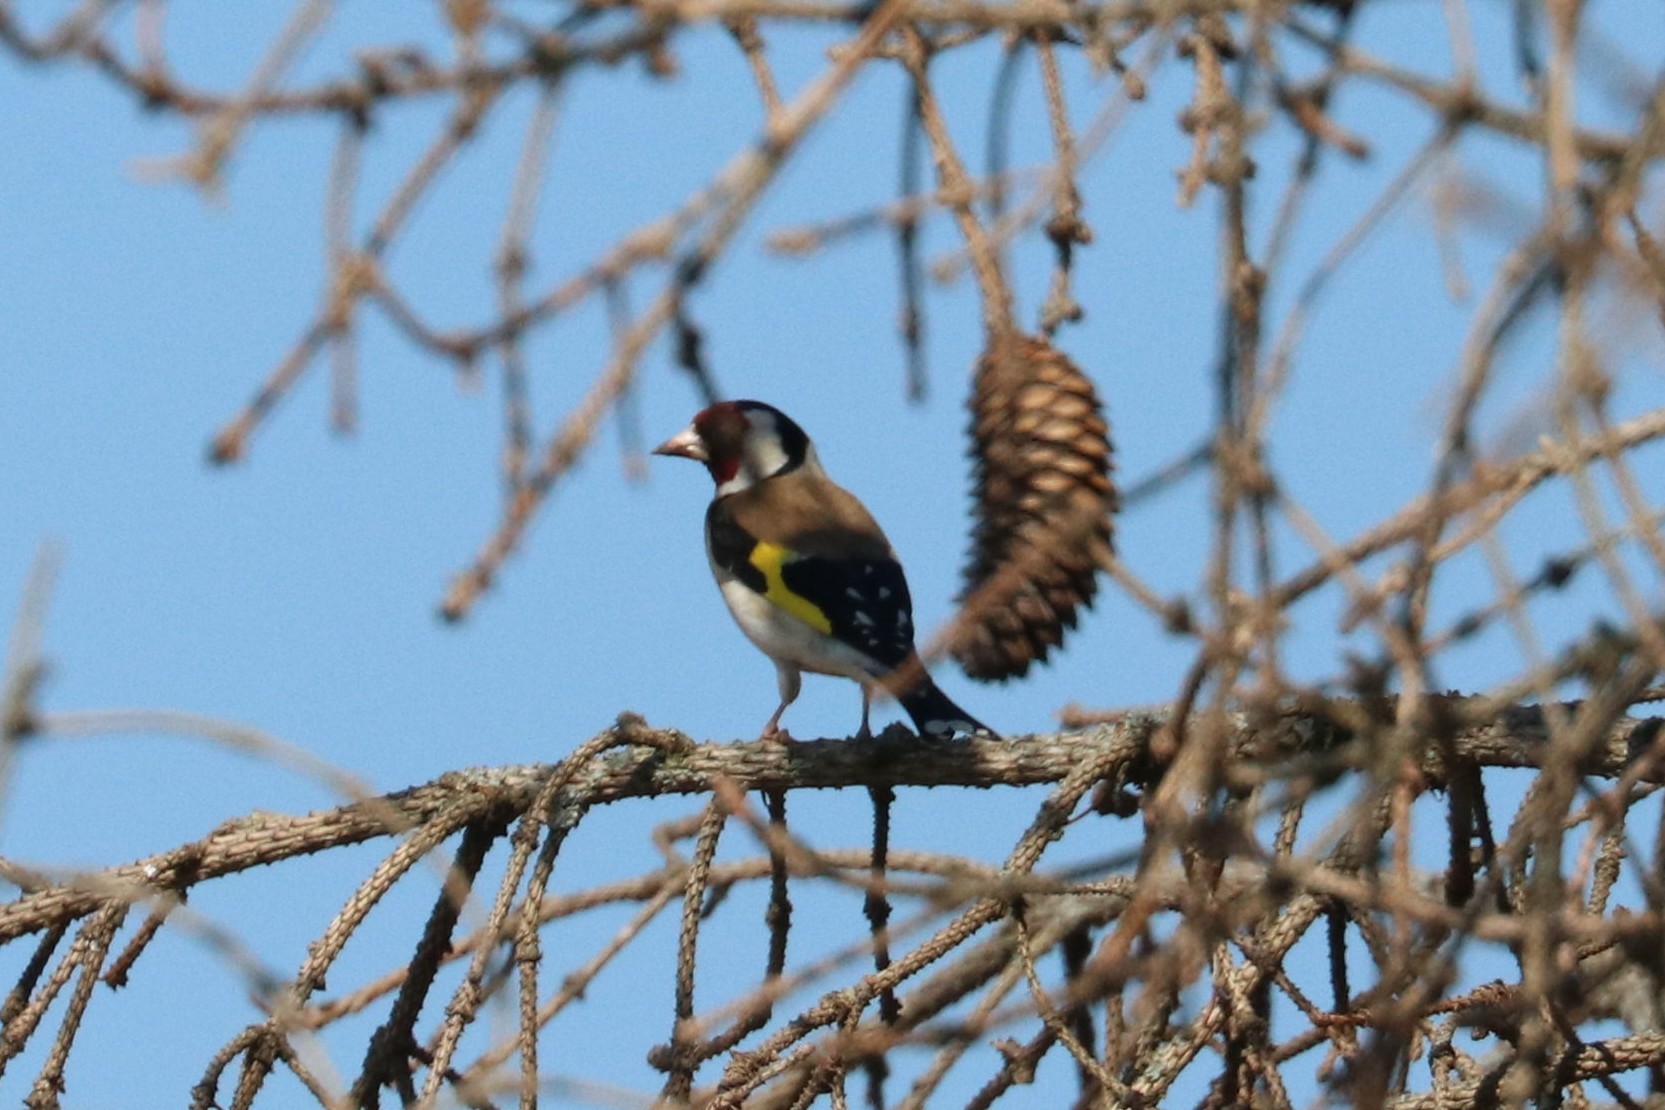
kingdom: Animalia
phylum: Chordata
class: Aves
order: Passeriformes
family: Fringillidae
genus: Carduelis
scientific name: Carduelis carduelis
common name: European goldfinch
